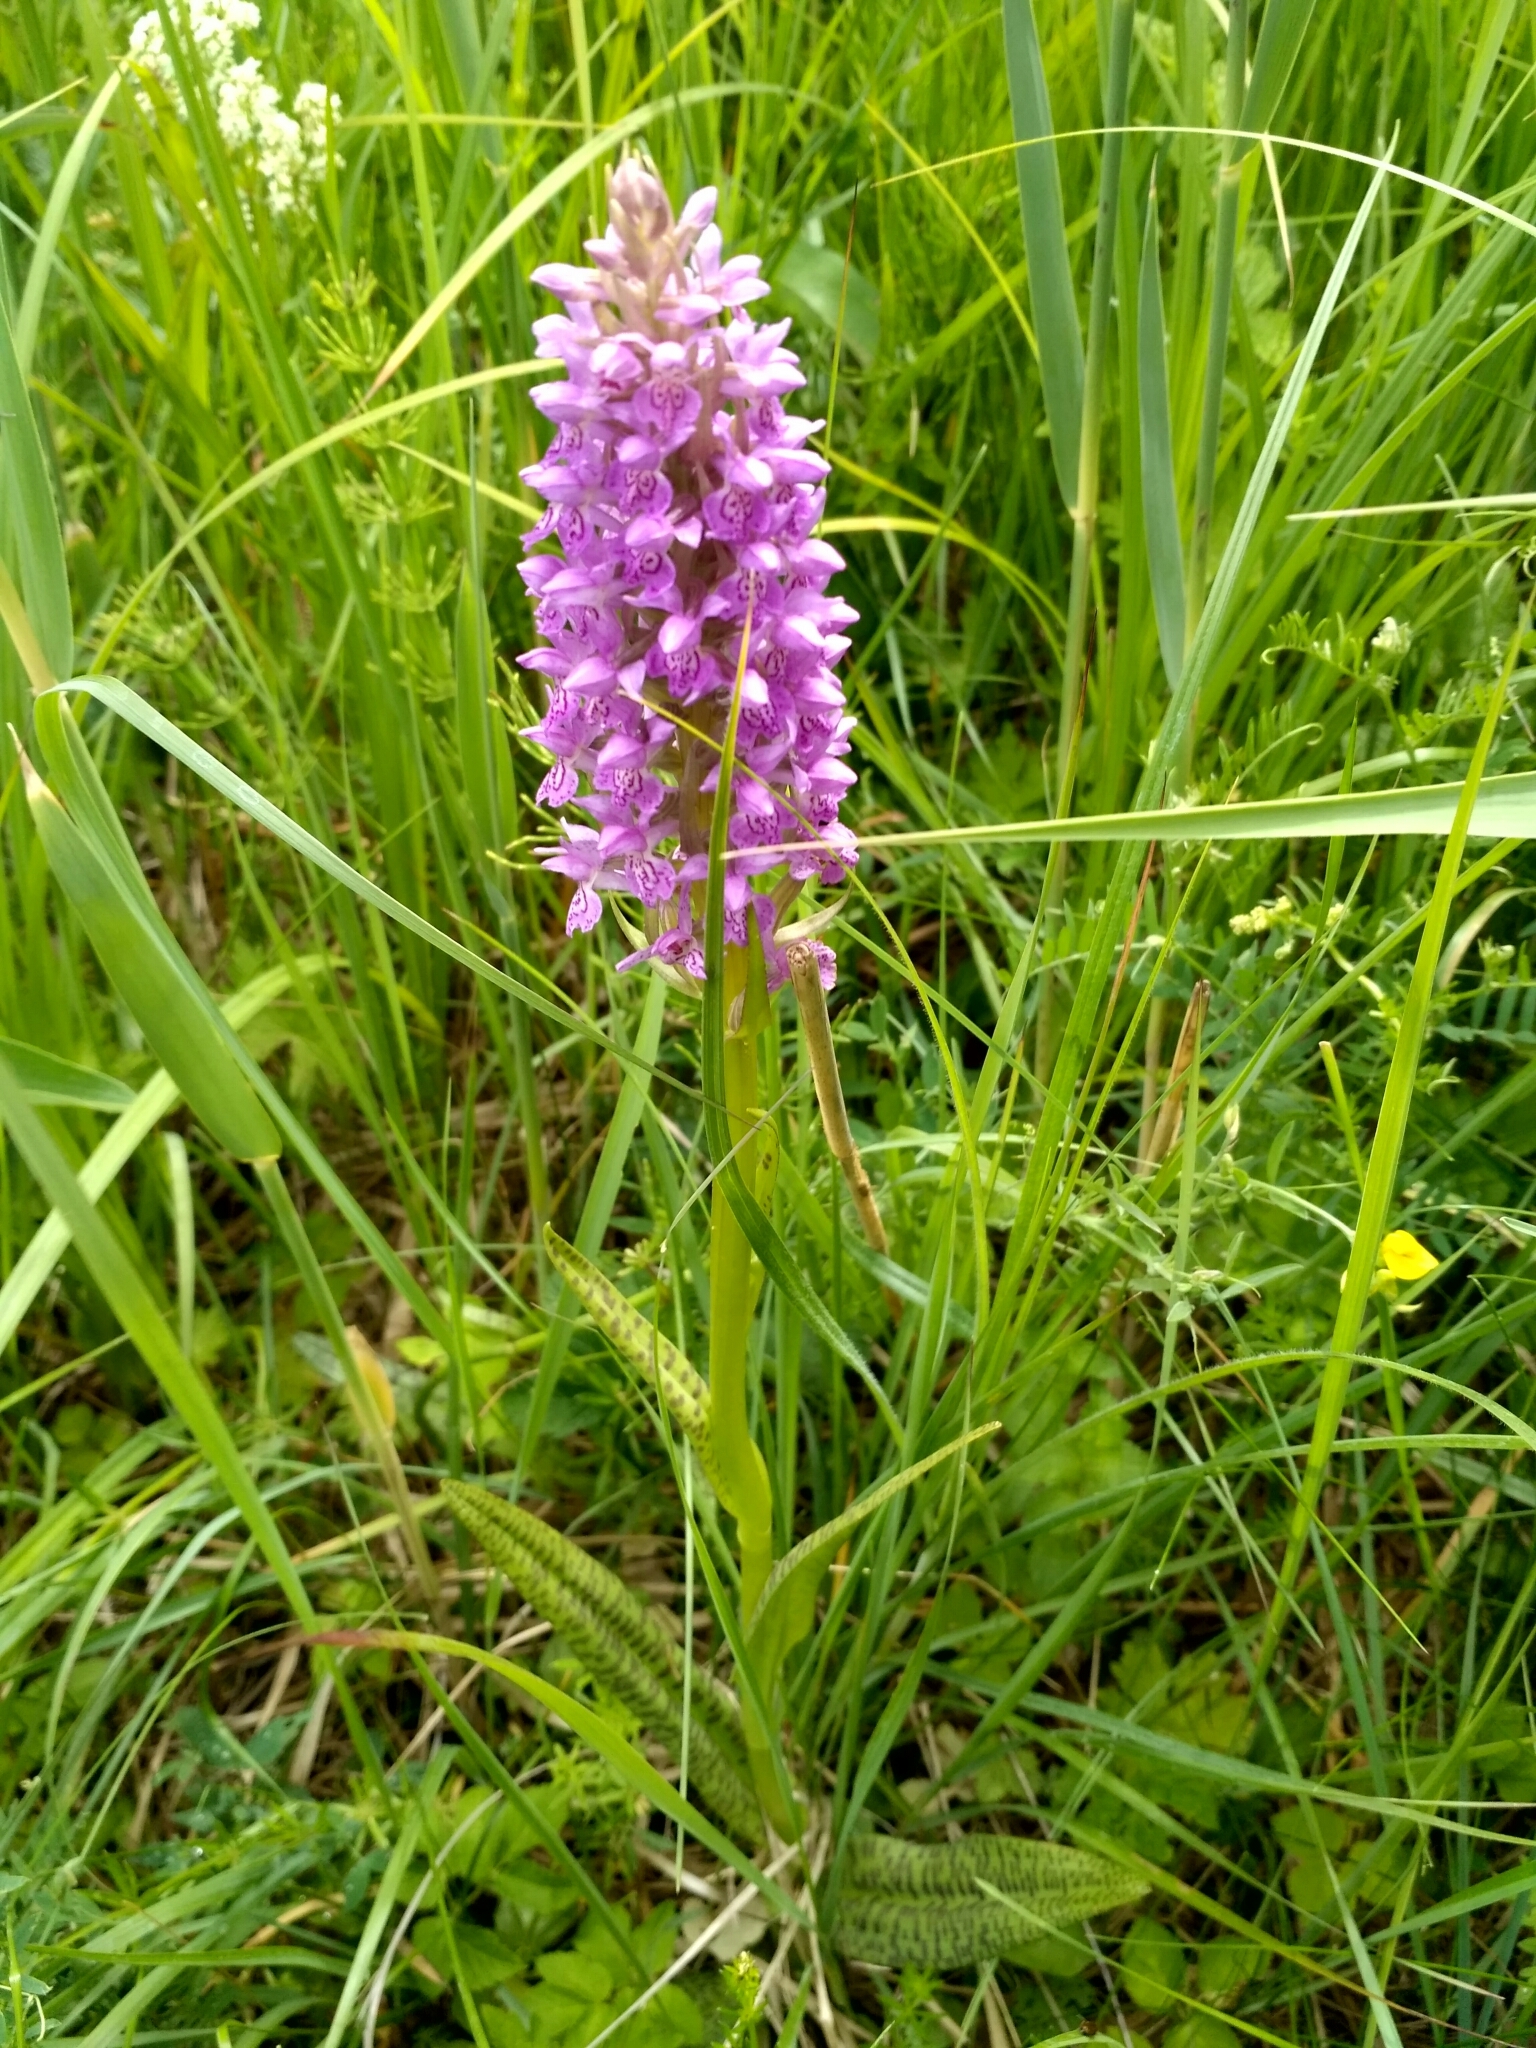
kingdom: Plantae
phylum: Tracheophyta
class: Liliopsida
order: Asparagales
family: Orchidaceae
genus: Dactylorhiza
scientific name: Dactylorhiza majalis
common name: Marsh orchid
